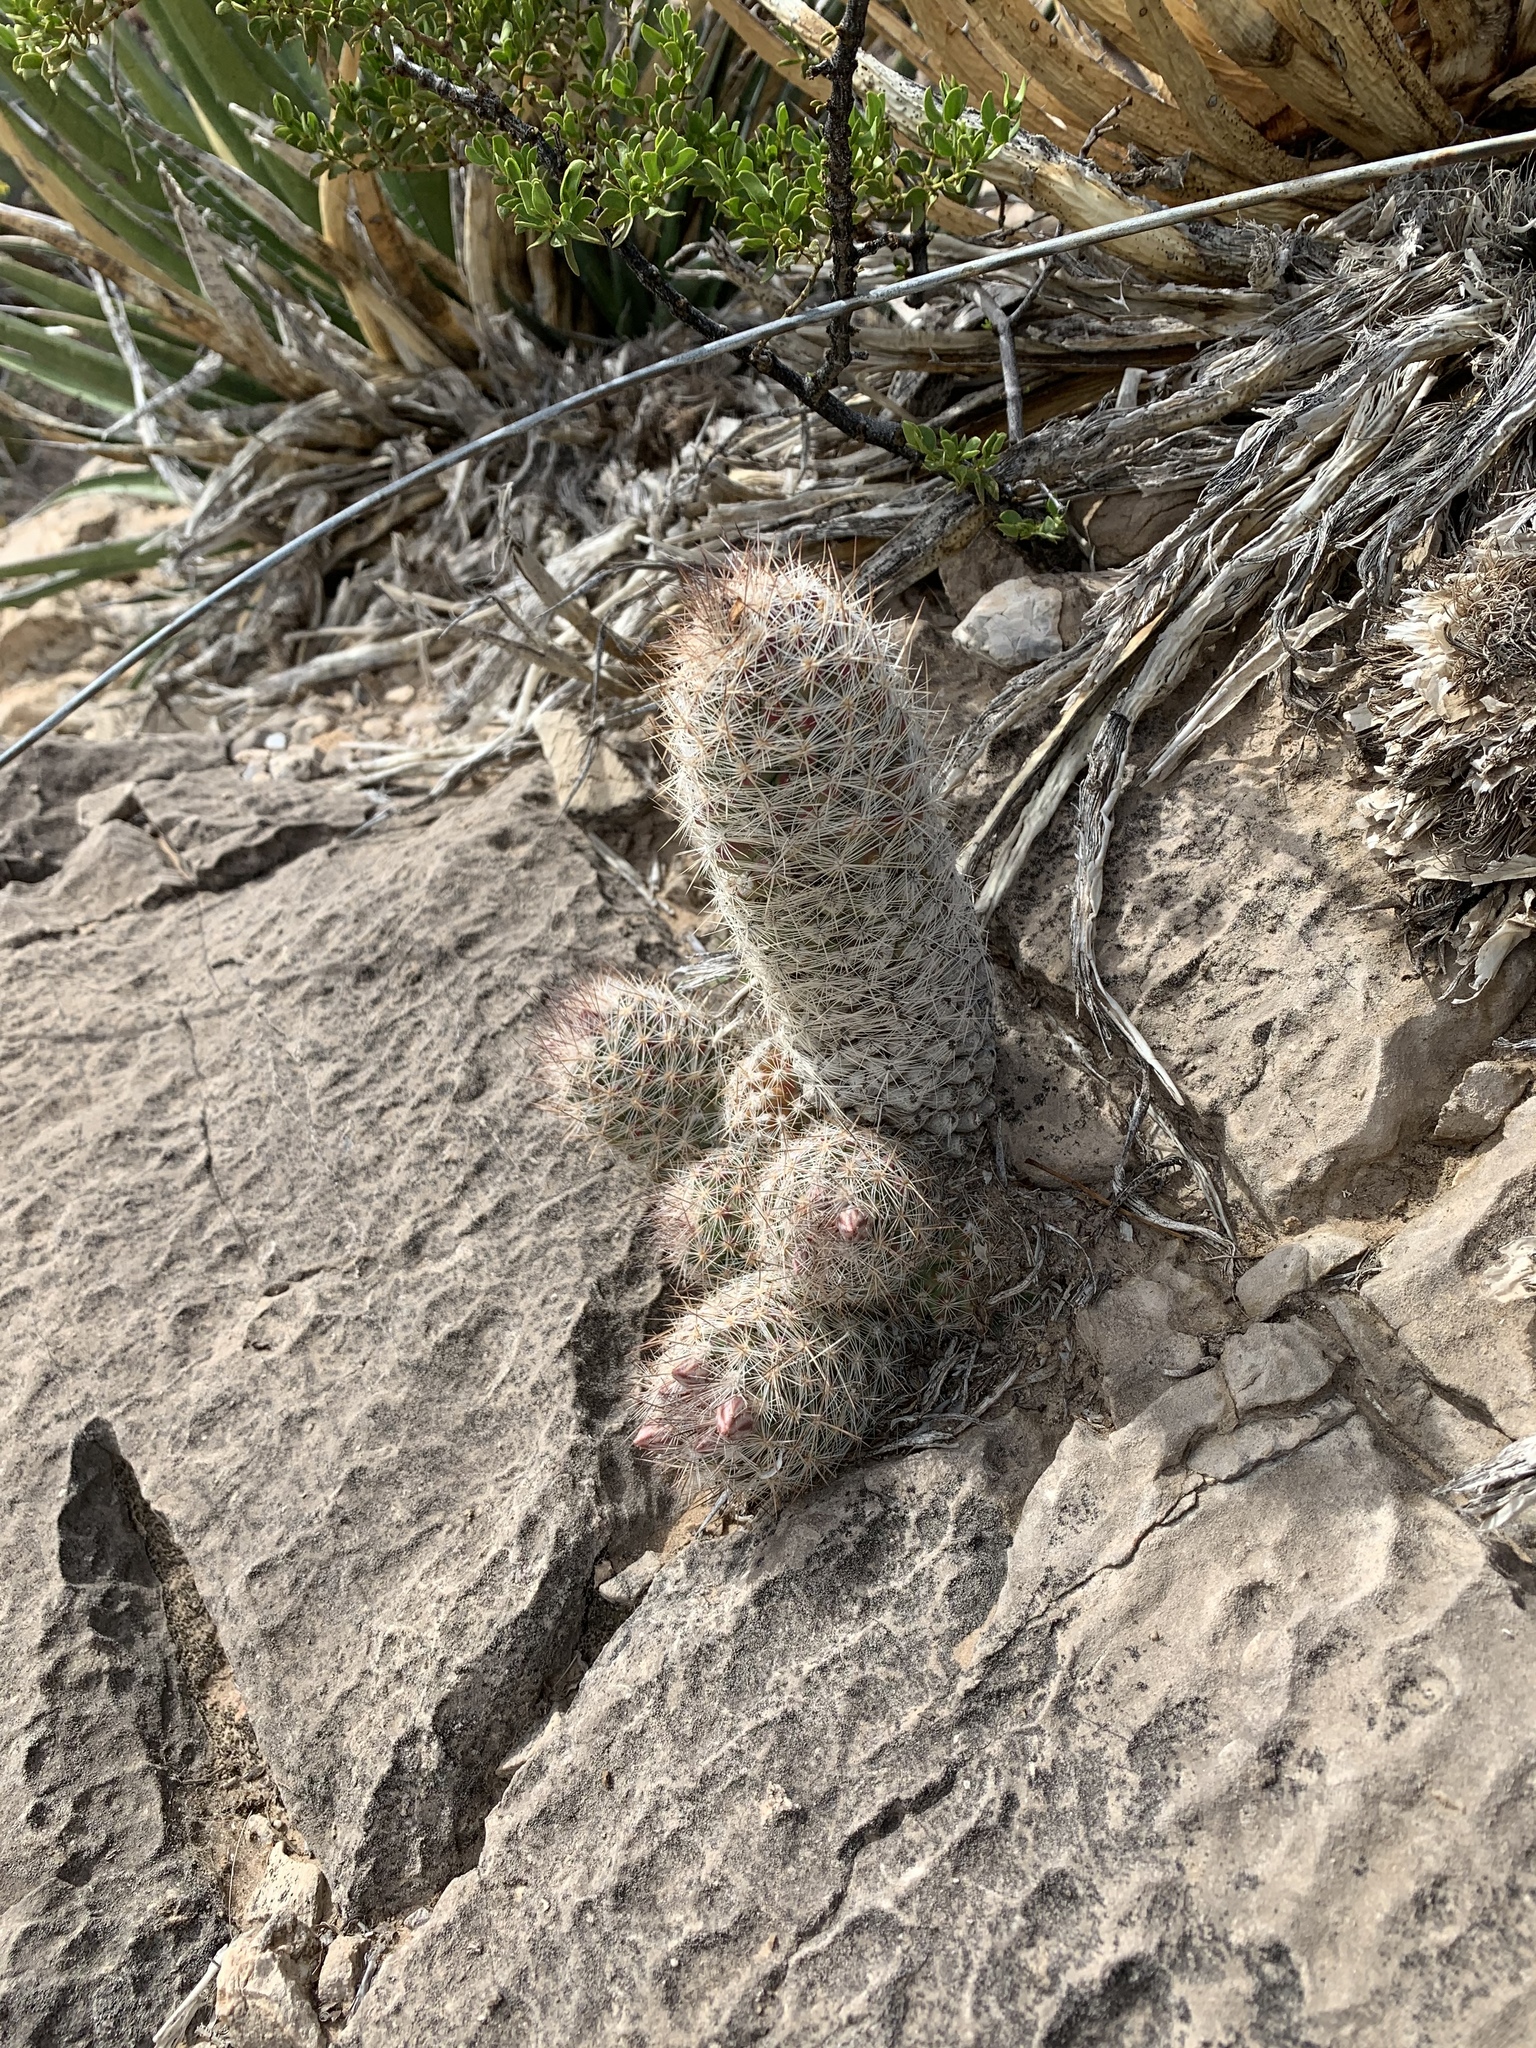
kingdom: Plantae
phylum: Tracheophyta
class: Magnoliopsida
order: Caryophyllales
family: Cactaceae
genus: Pelecyphora
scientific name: Pelecyphora tuberculosa
